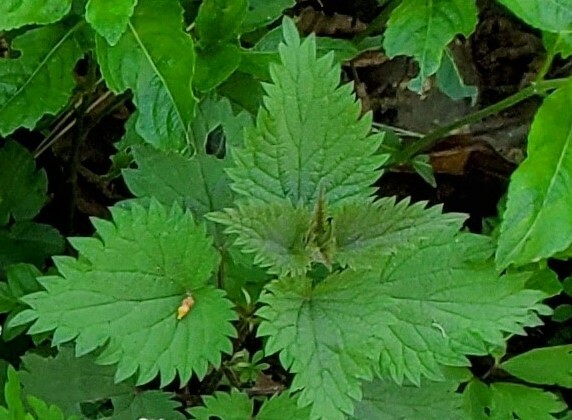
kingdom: Plantae
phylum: Tracheophyta
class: Magnoliopsida
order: Rosales
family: Urticaceae
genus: Urtica
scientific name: Urtica dioica
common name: Common nettle
